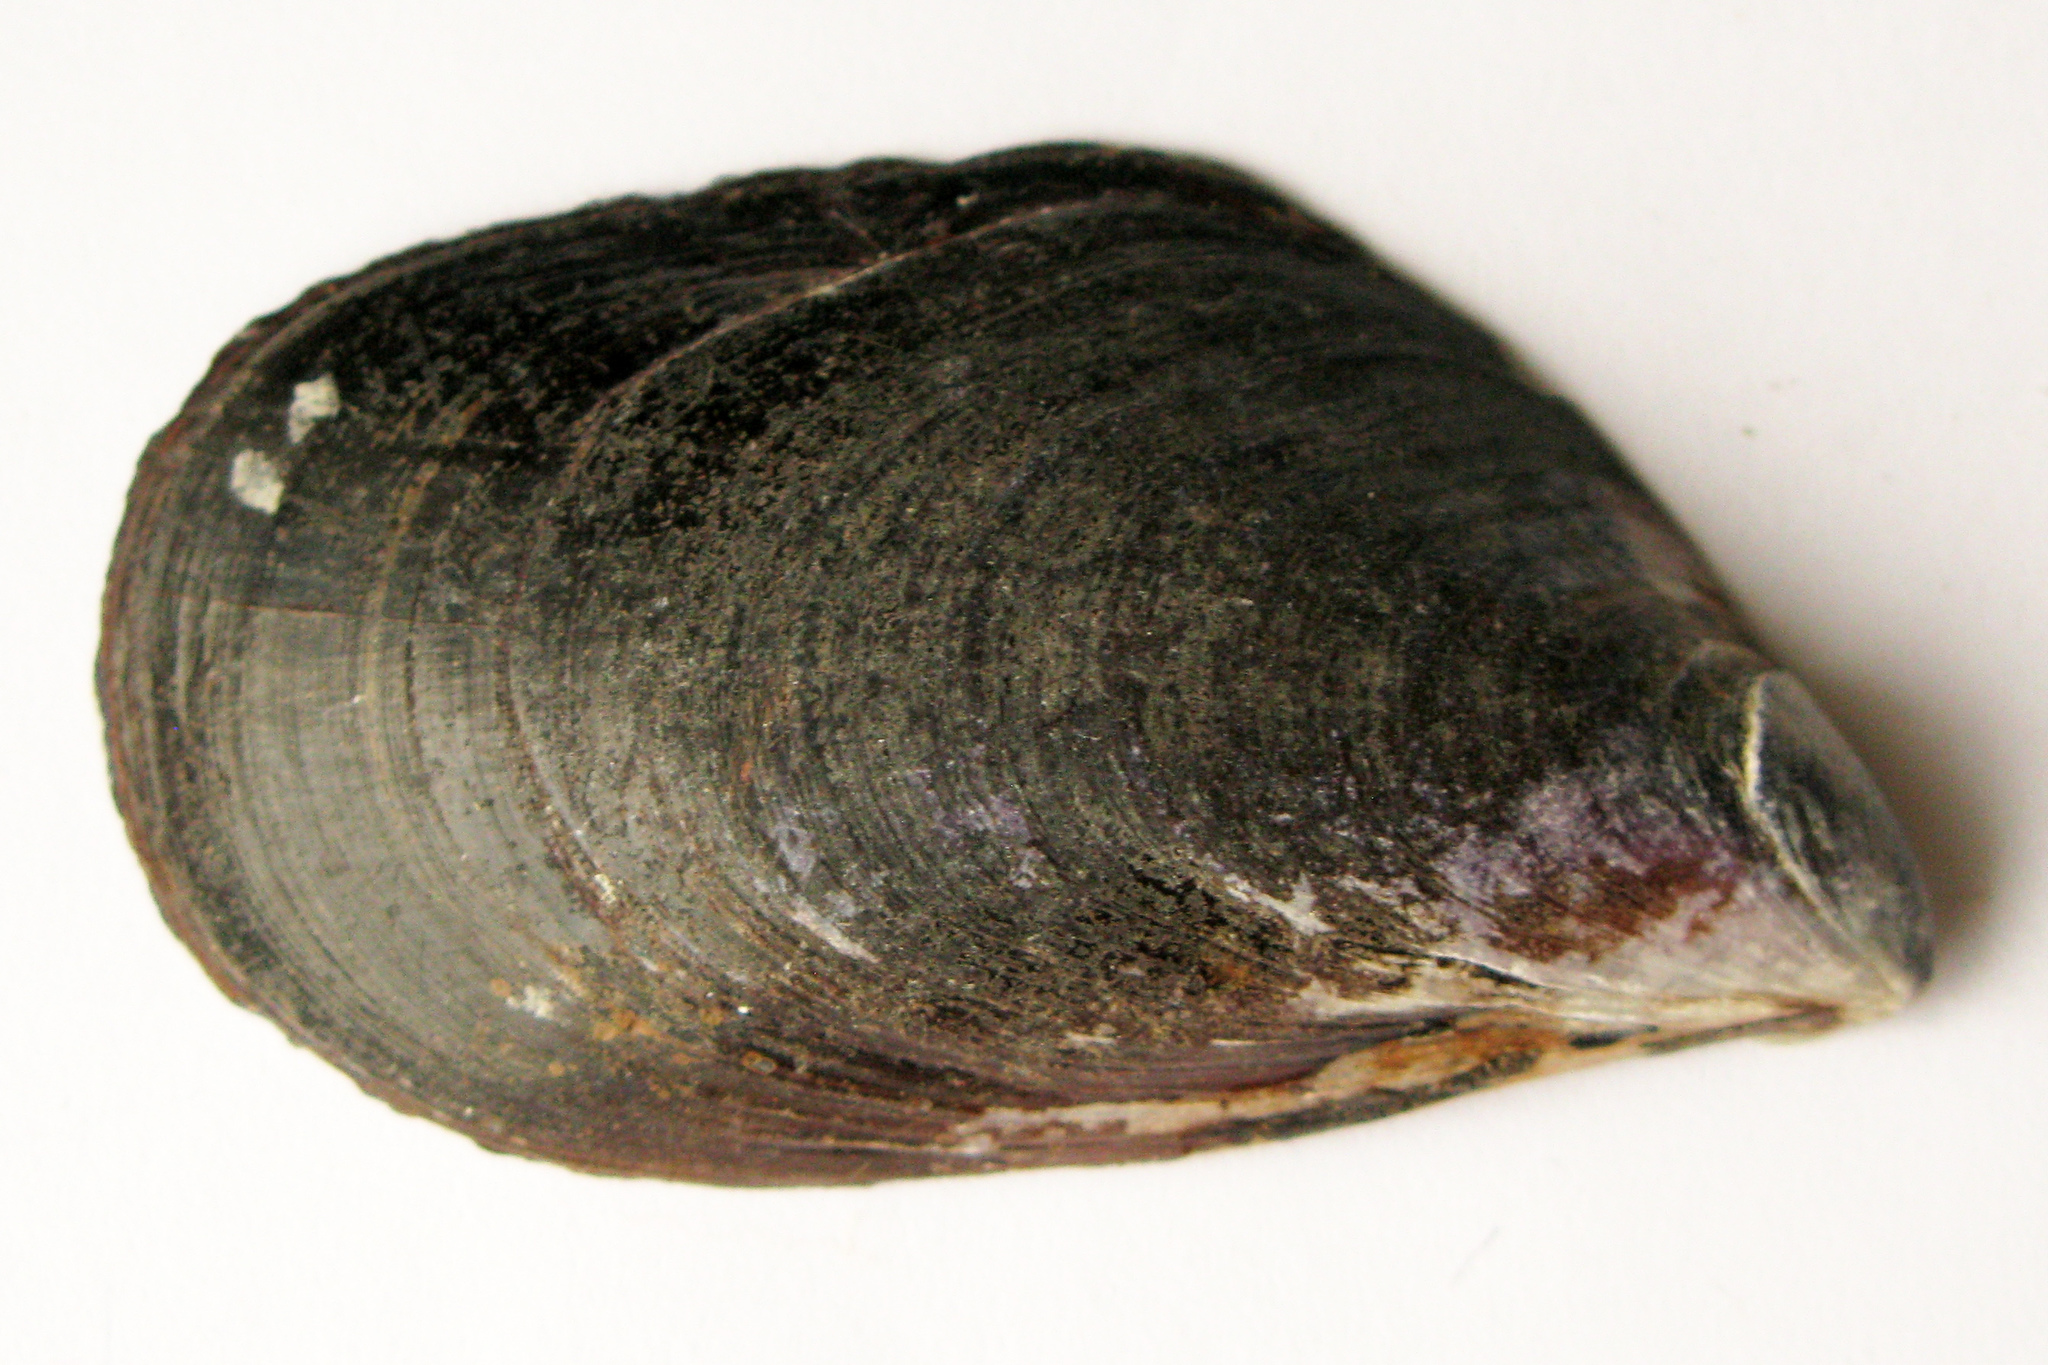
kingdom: Animalia
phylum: Mollusca
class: Bivalvia
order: Mytilida
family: Mytilidae
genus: Mytilus
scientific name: Mytilus galloprovincialis
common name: Mediterranean mussel
